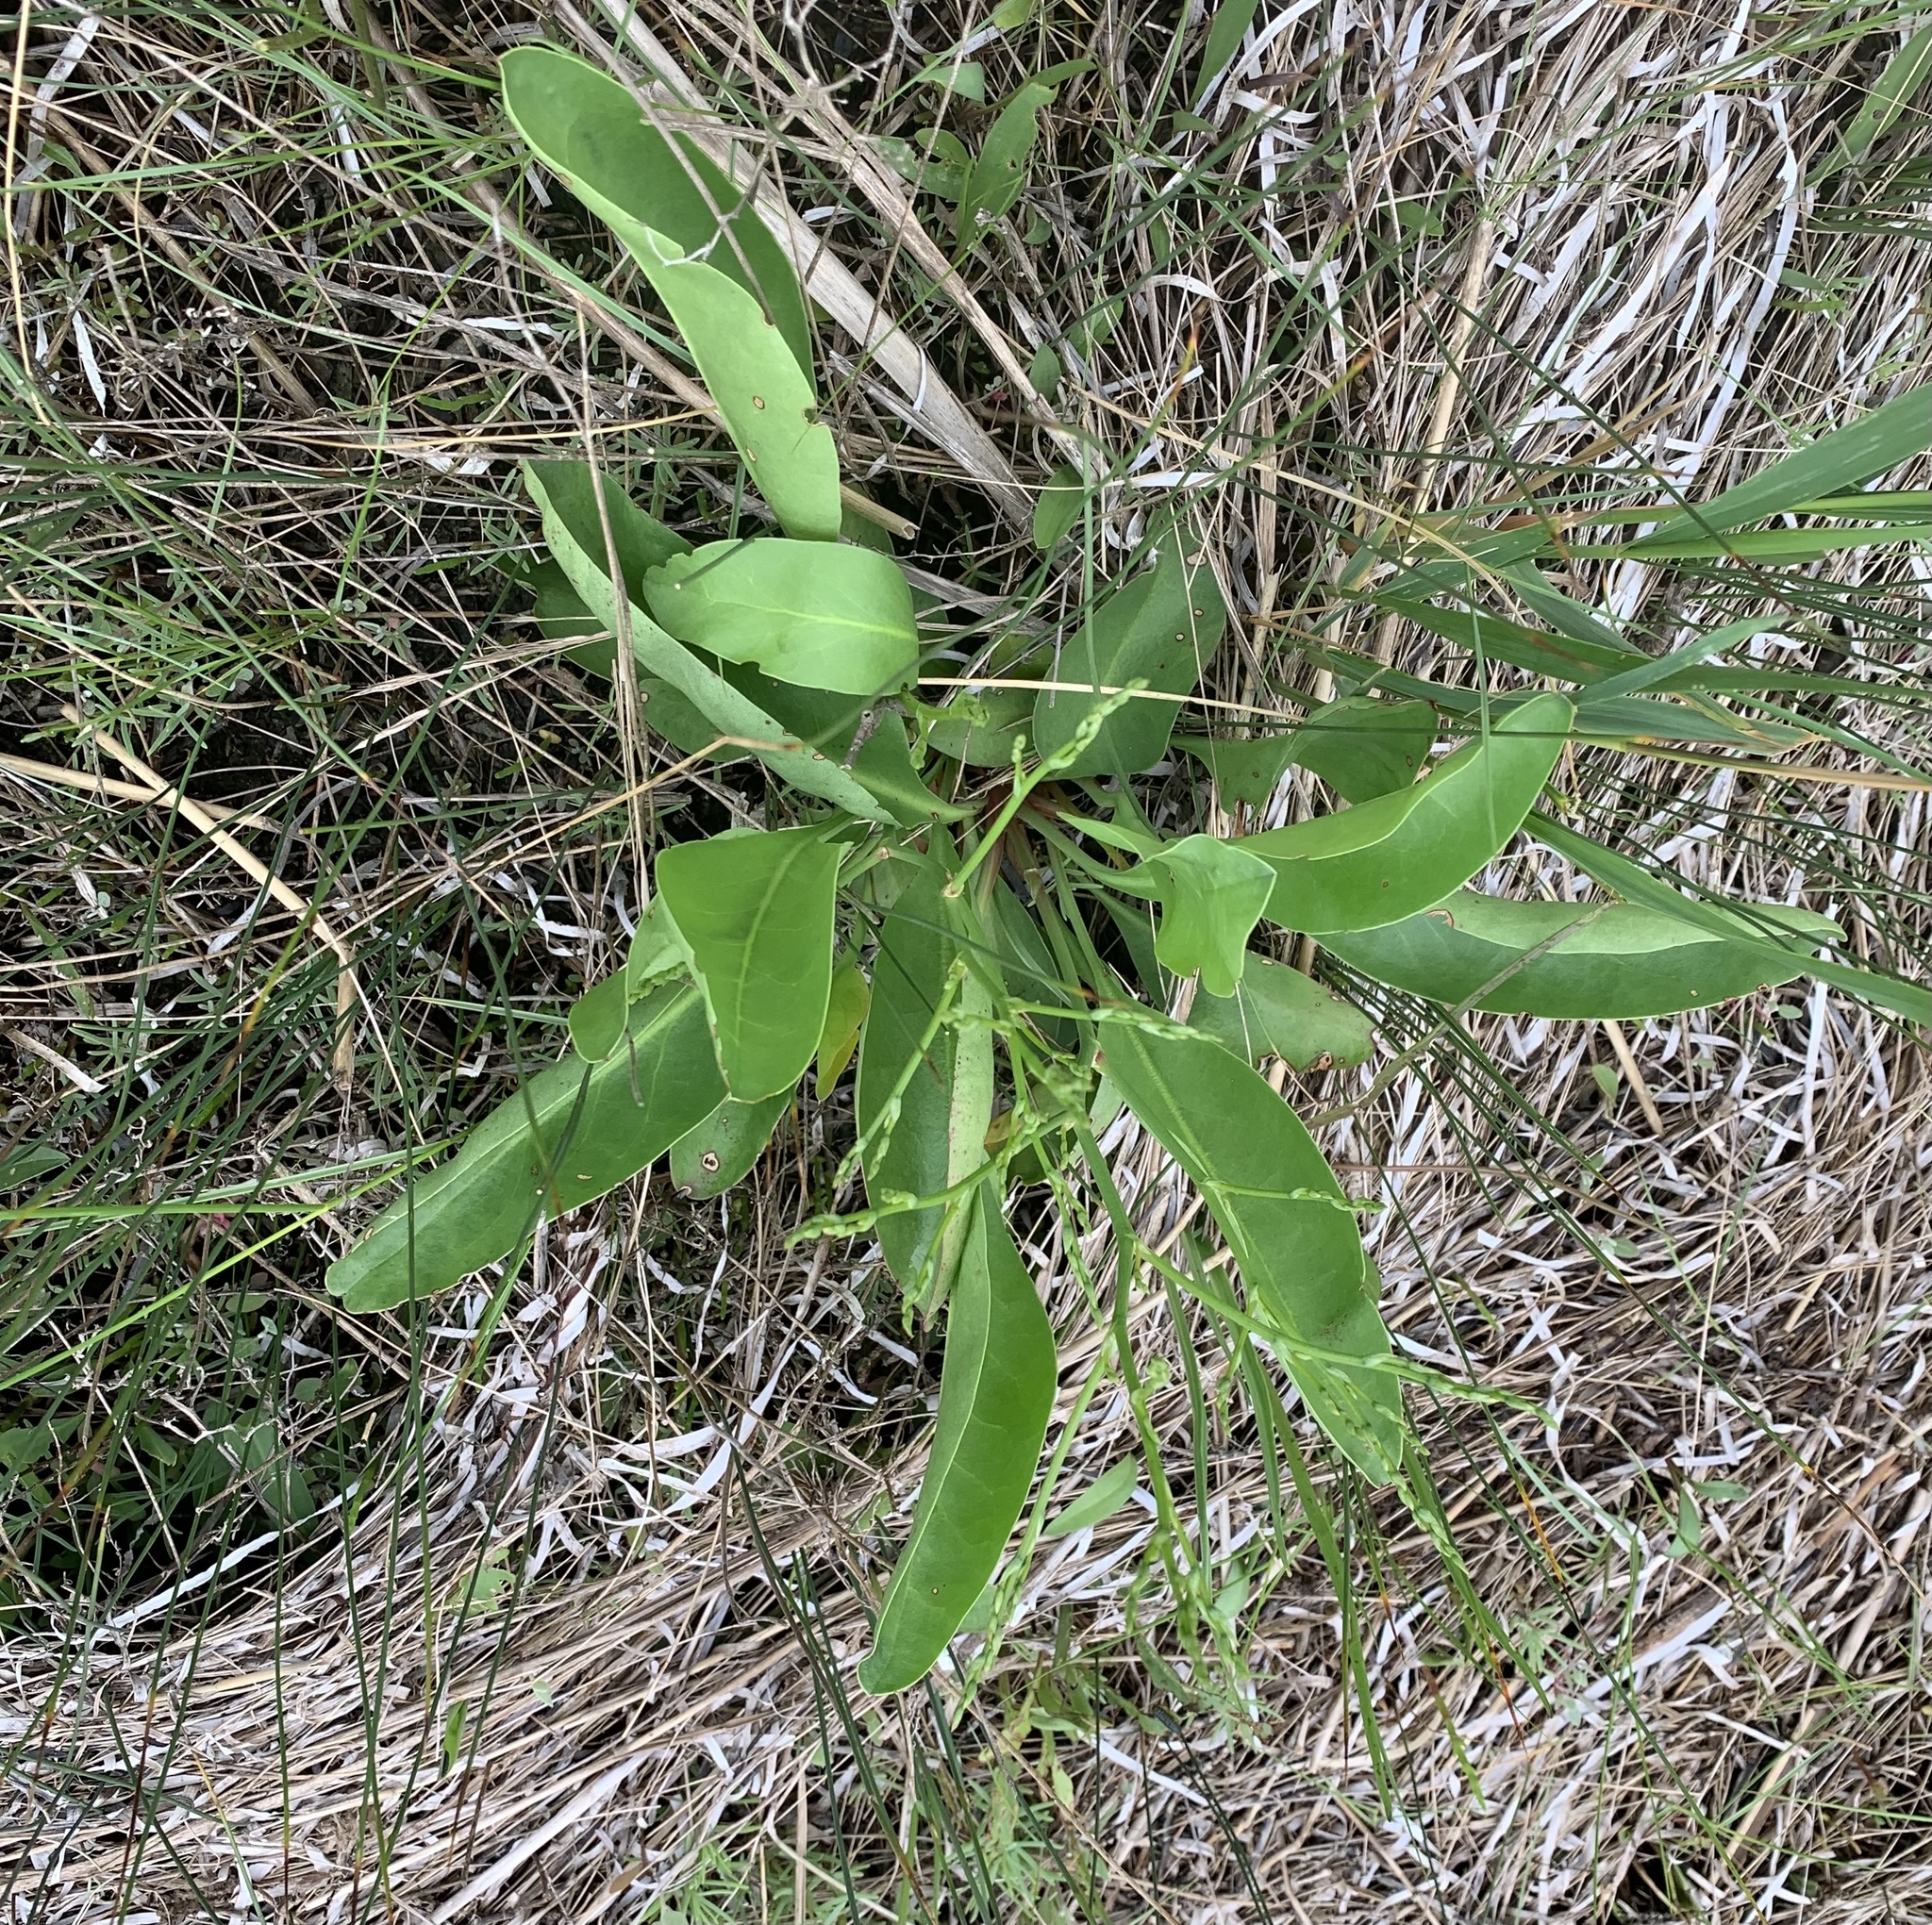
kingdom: Plantae
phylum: Tracheophyta
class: Magnoliopsida
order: Caryophyllales
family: Plumbaginaceae
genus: Limonium
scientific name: Limonium carolinianum
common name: Carolina sea lavender
